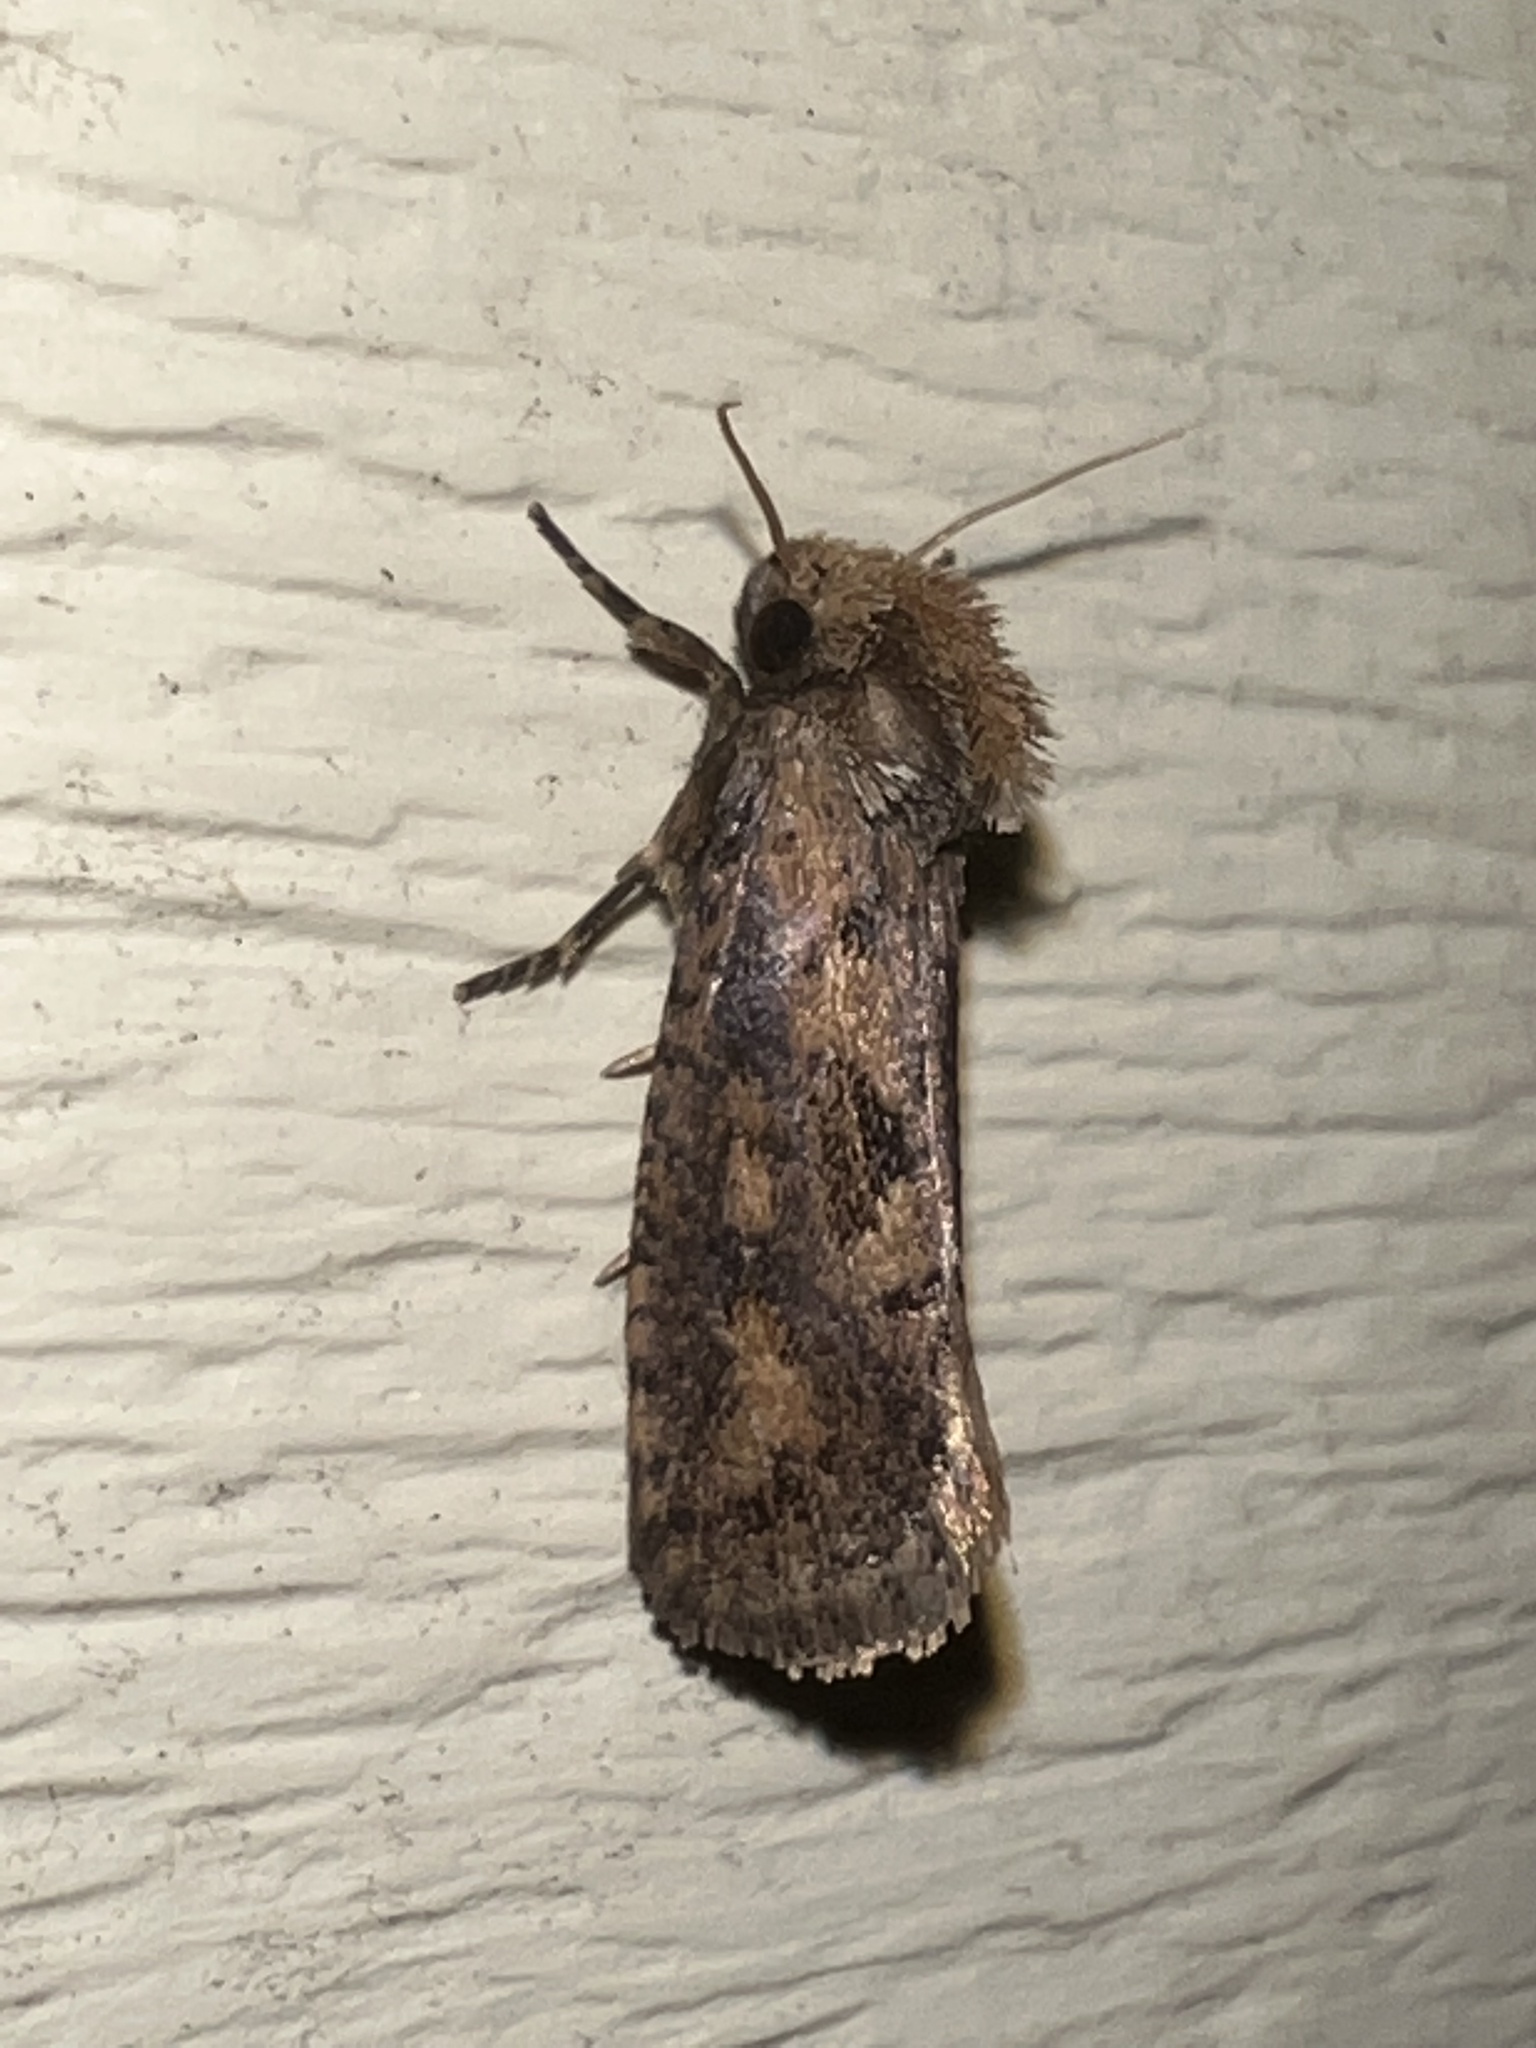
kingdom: Animalia
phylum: Arthropoda
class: Insecta
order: Lepidoptera
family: Tineidae
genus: Acrolophus
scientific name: Acrolophus popeanella
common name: Clemens' grass tubeworm moth
